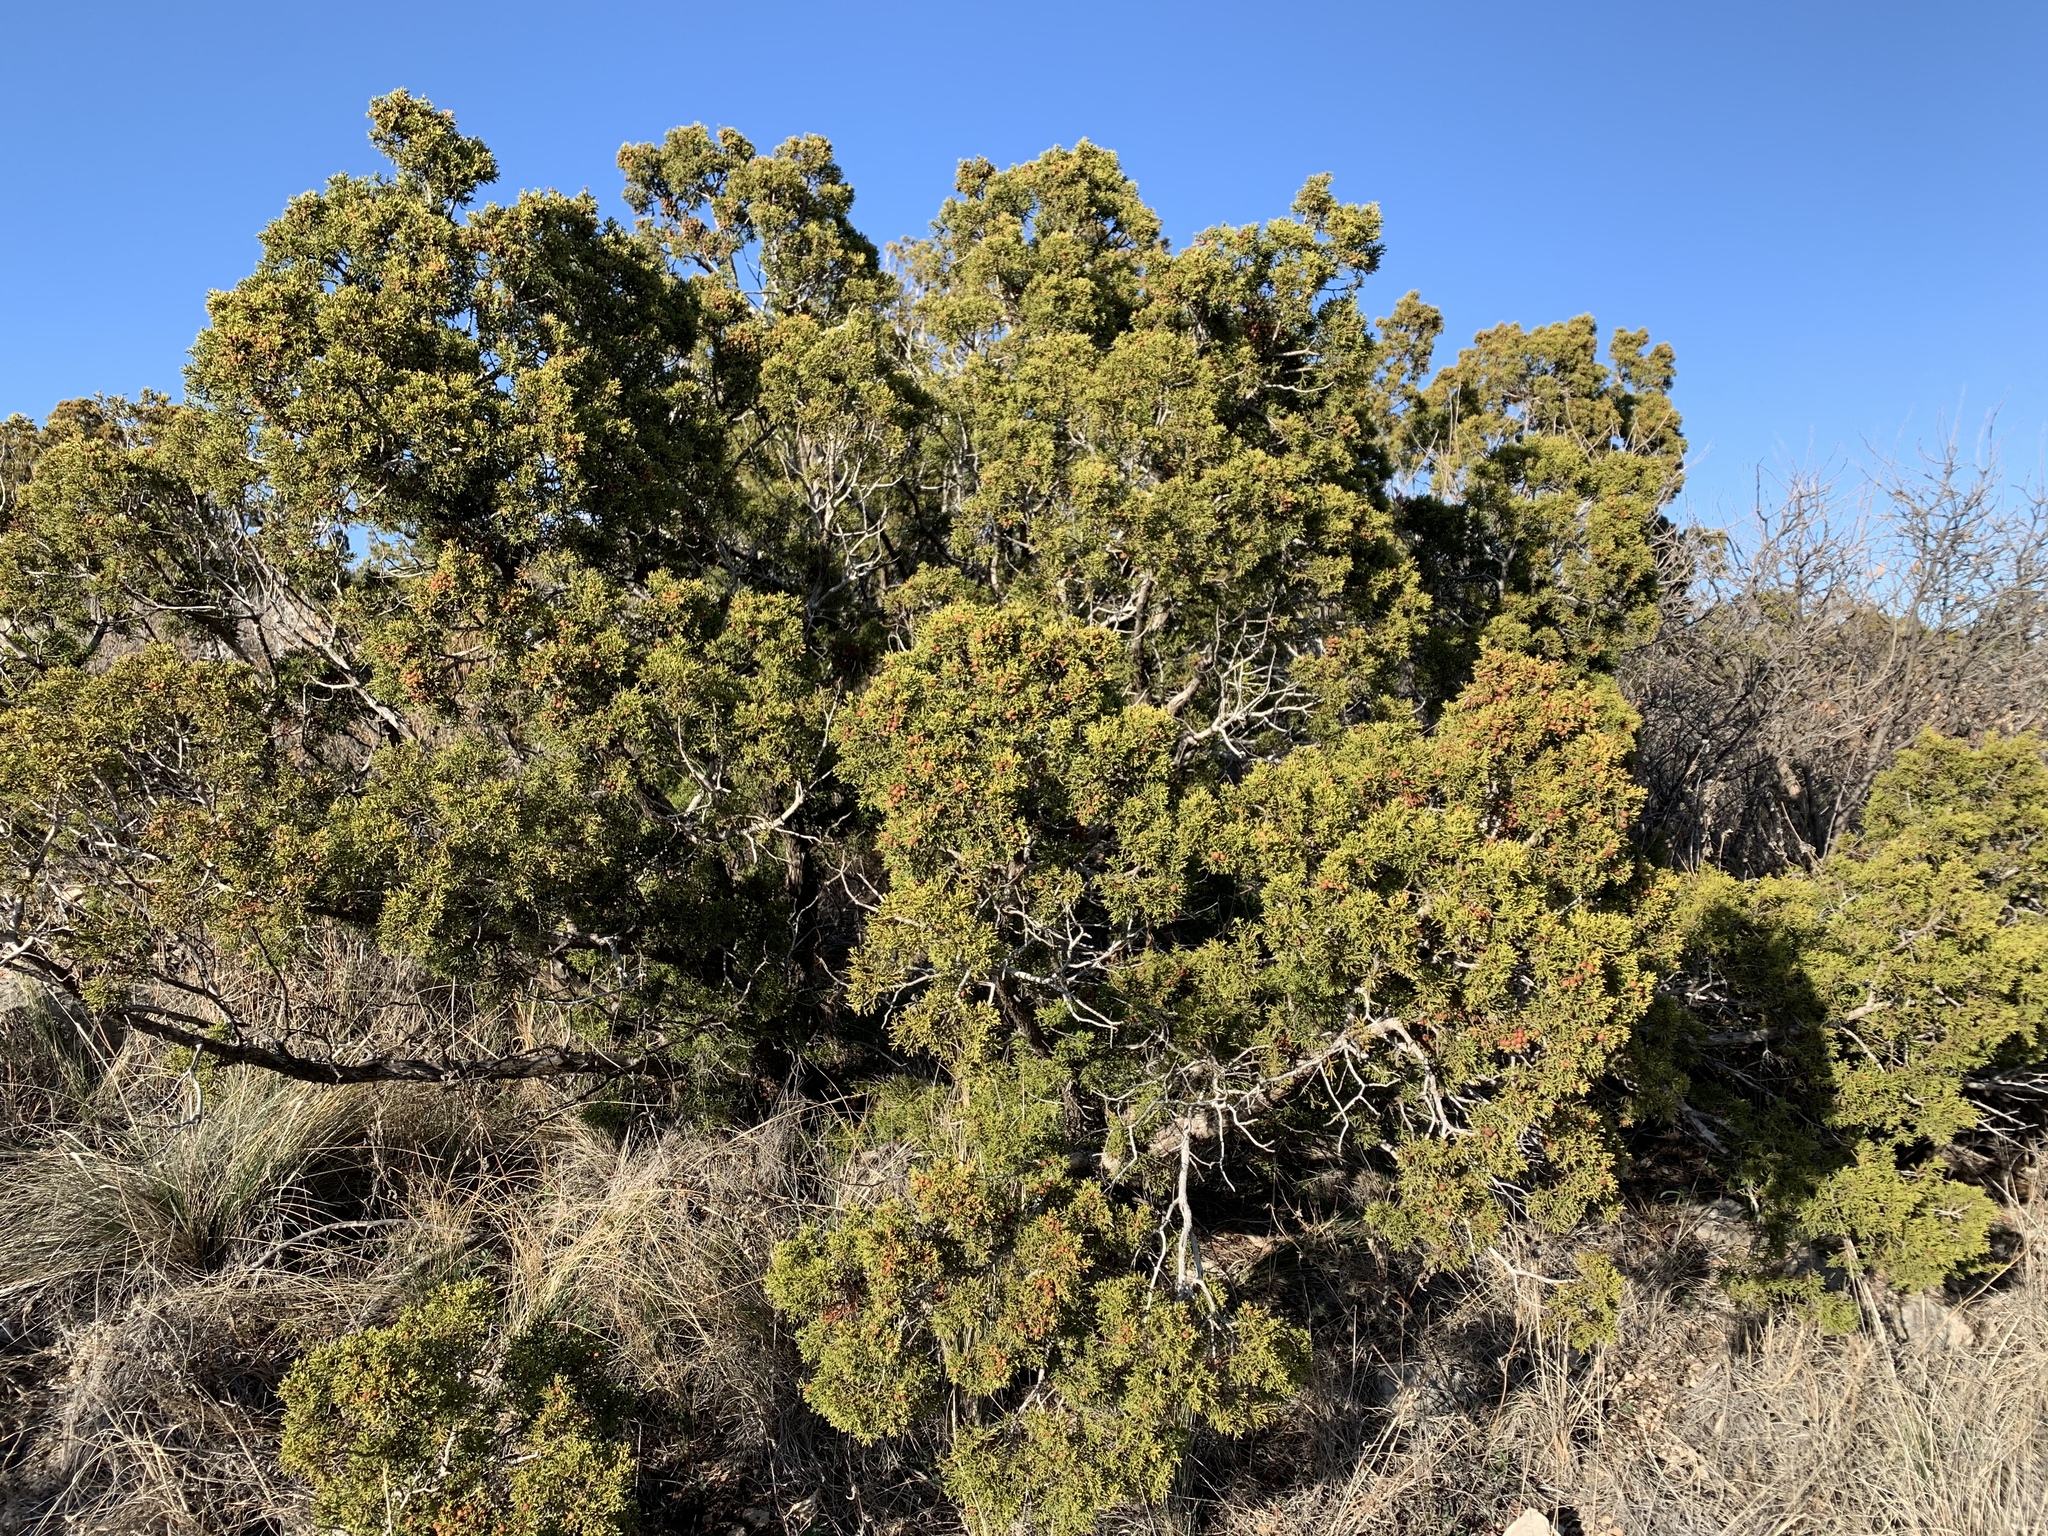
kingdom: Plantae
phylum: Tracheophyta
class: Pinopsida
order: Pinales
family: Cupressaceae
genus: Juniperus
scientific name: Juniperus pinchotii
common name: Pinchot juniper
